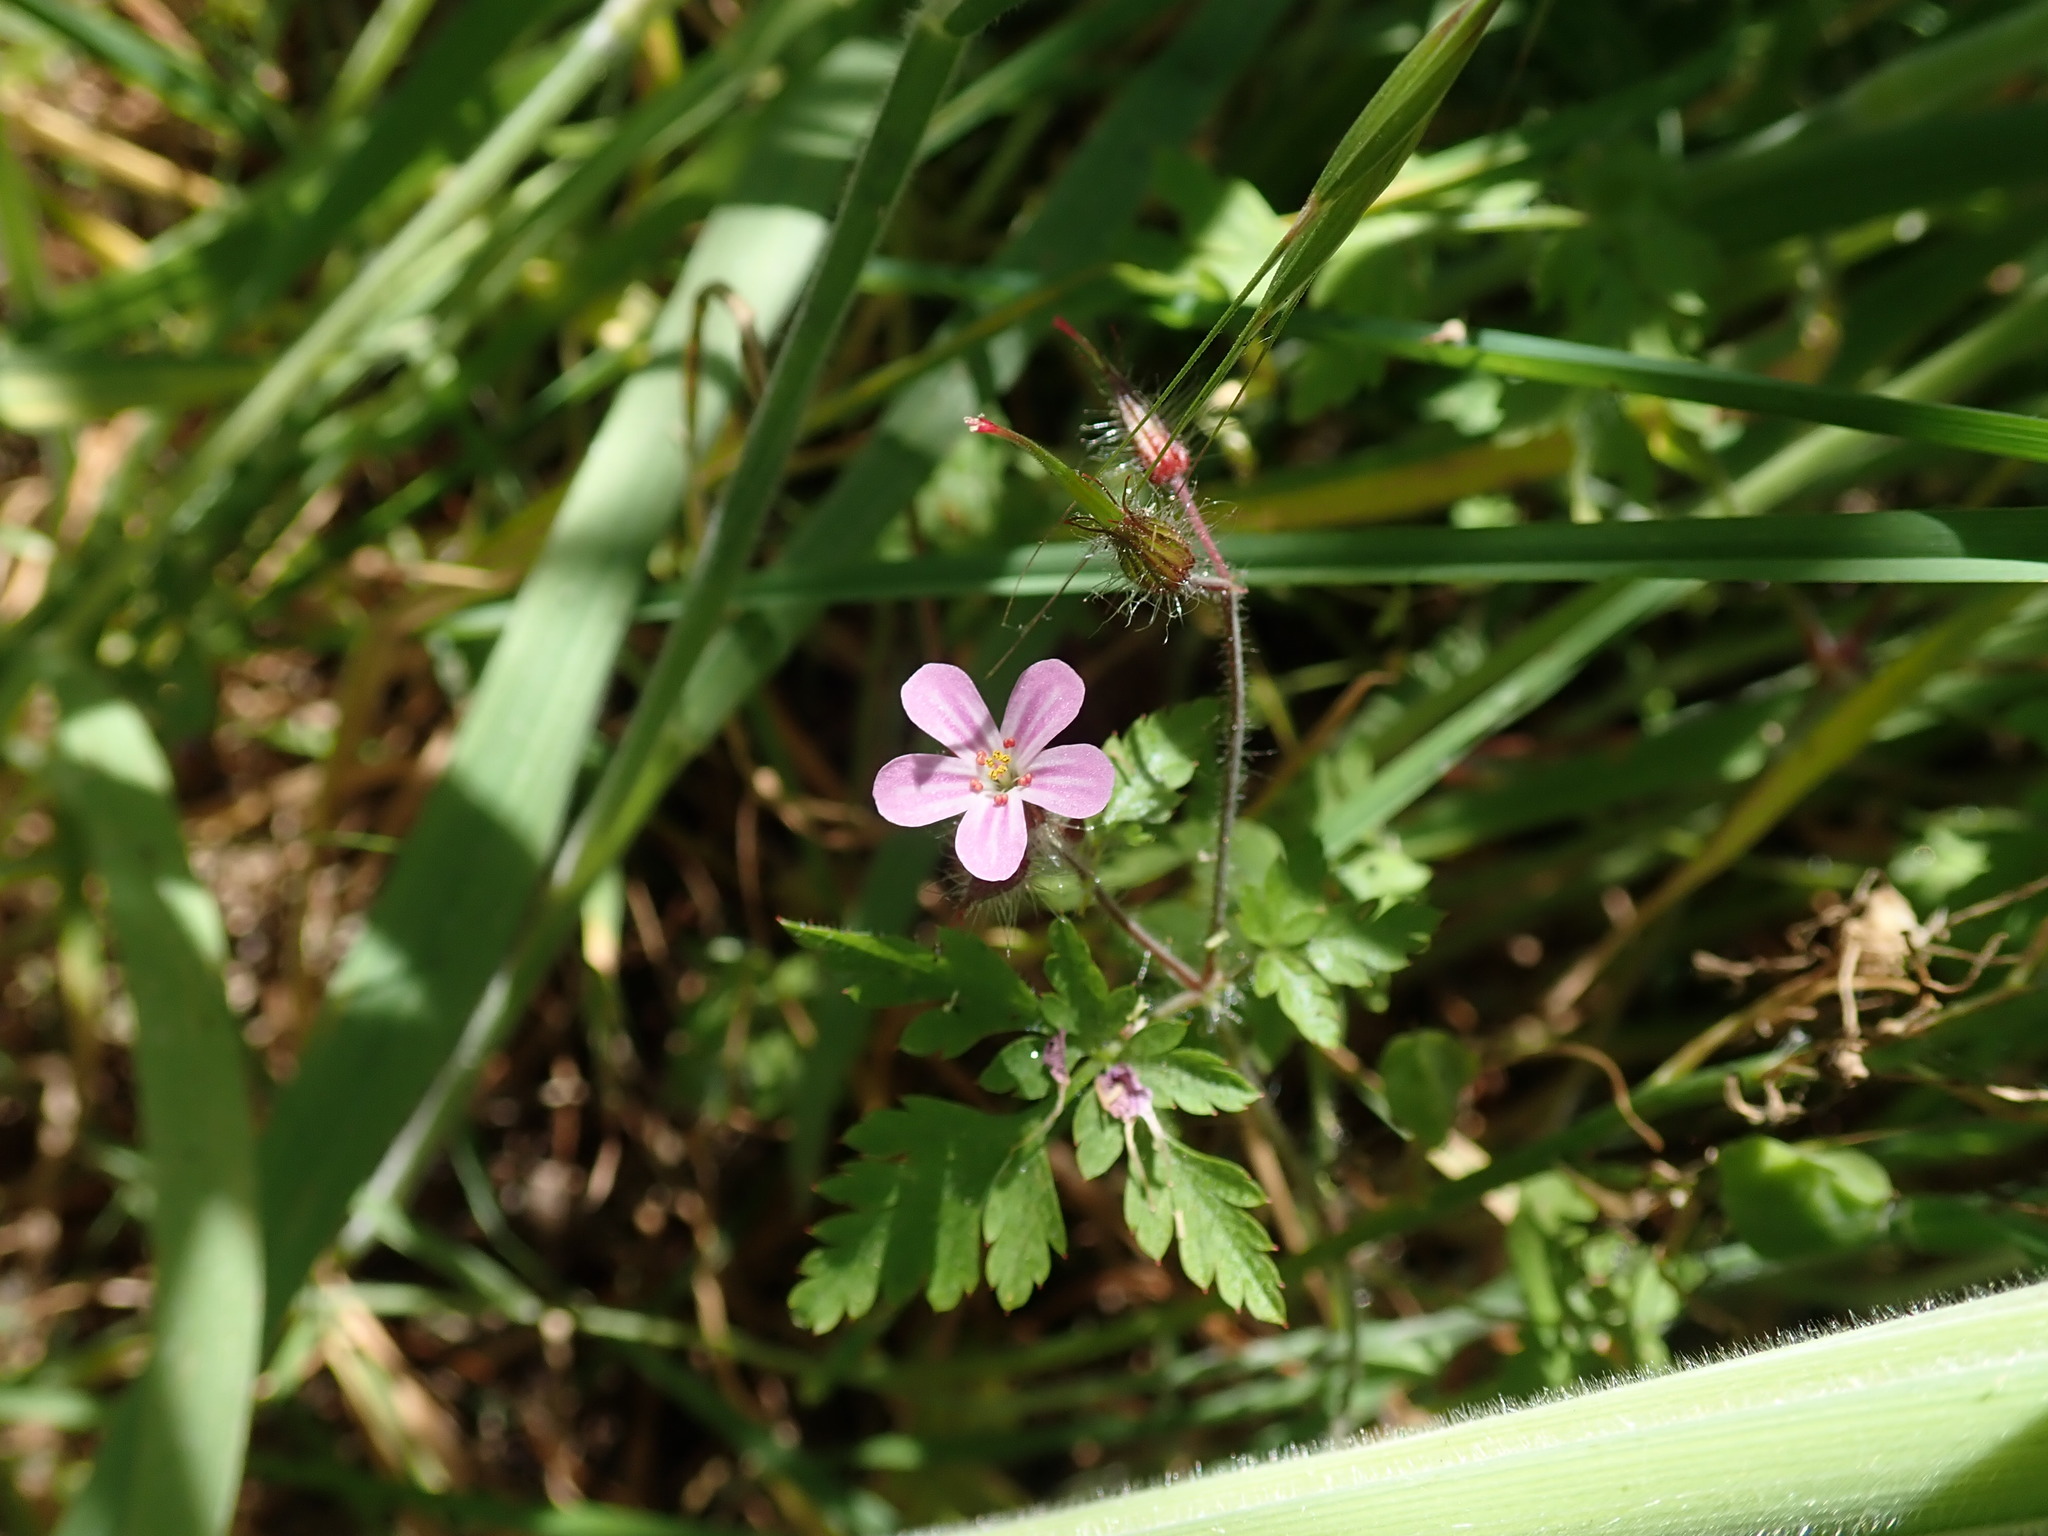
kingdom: Plantae
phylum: Tracheophyta
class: Magnoliopsida
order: Geraniales
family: Geraniaceae
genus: Geranium
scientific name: Geranium robertianum
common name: Herb-robert
